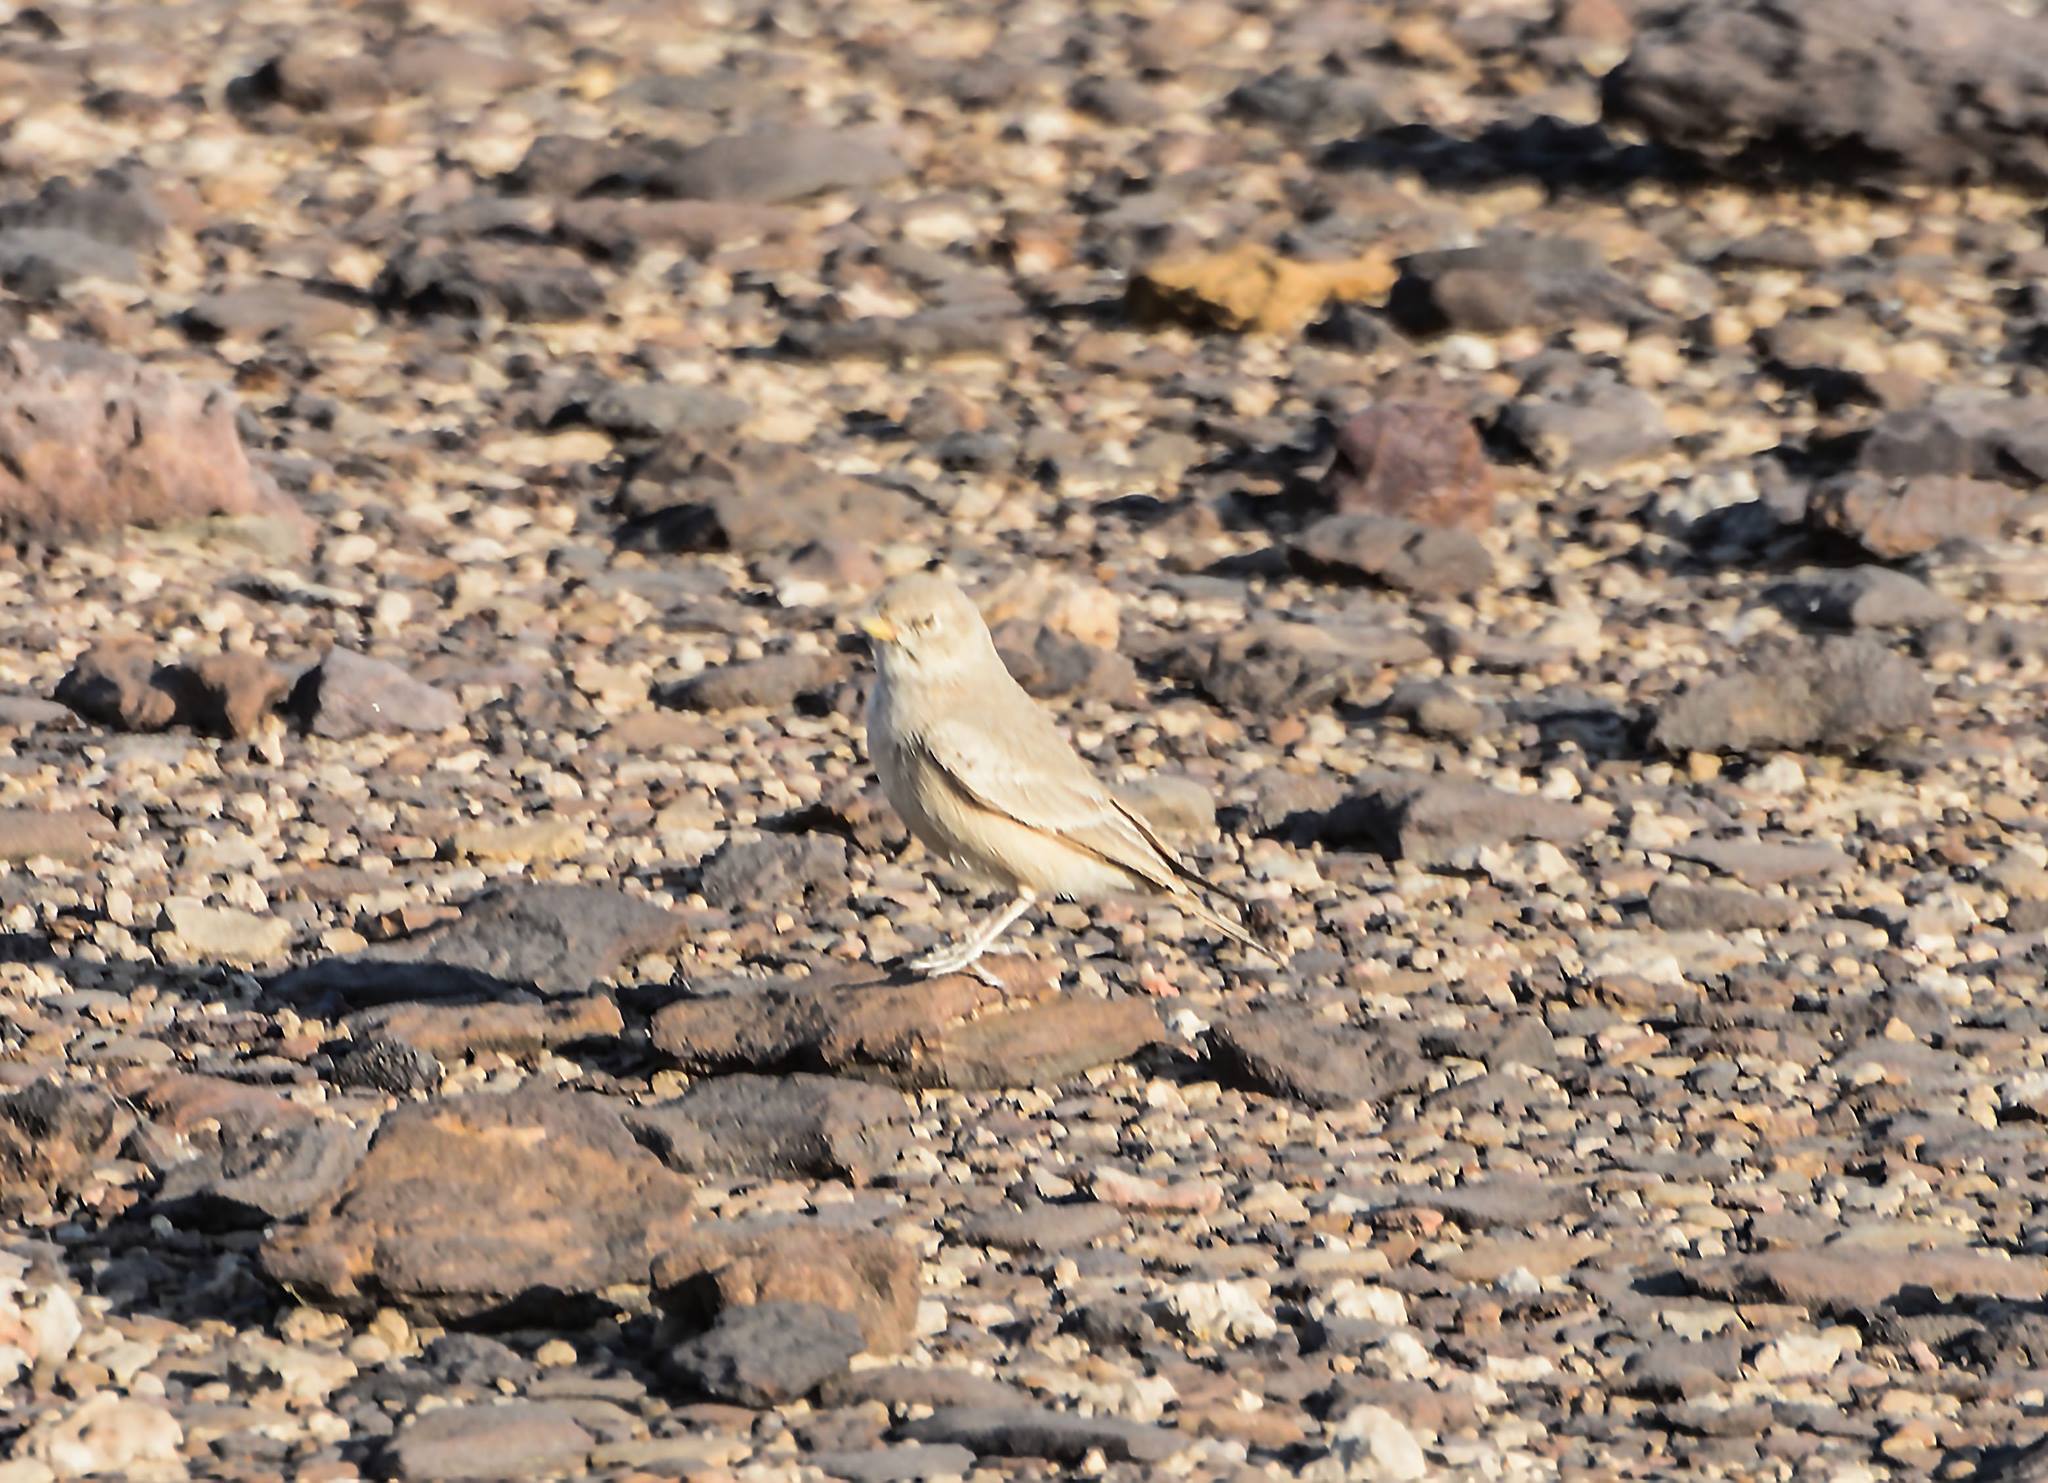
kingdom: Animalia
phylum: Chordata
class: Aves
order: Passeriformes
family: Alaudidae
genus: Ammomanes
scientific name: Ammomanes deserti
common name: Desert lark
